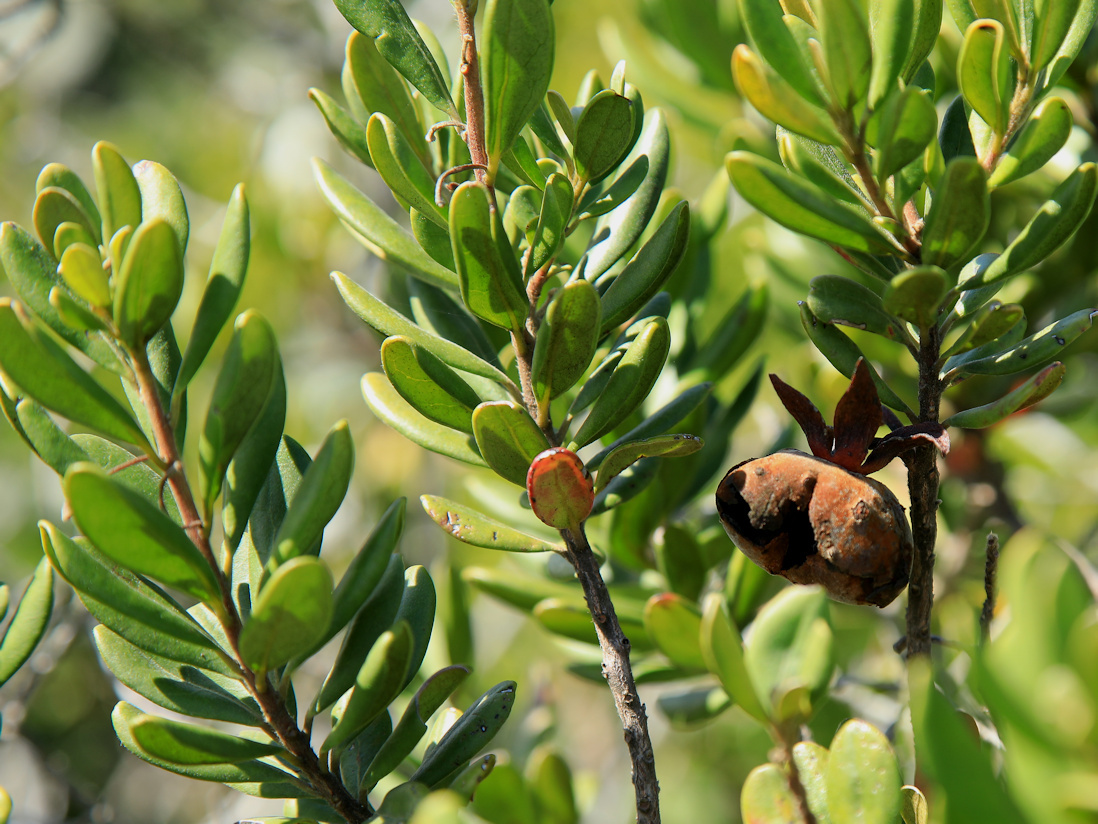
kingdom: Plantae
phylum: Tracheophyta
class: Magnoliopsida
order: Ericales
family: Ebenaceae
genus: Diospyros
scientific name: Diospyros dichrophylla
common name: Common star-apple
